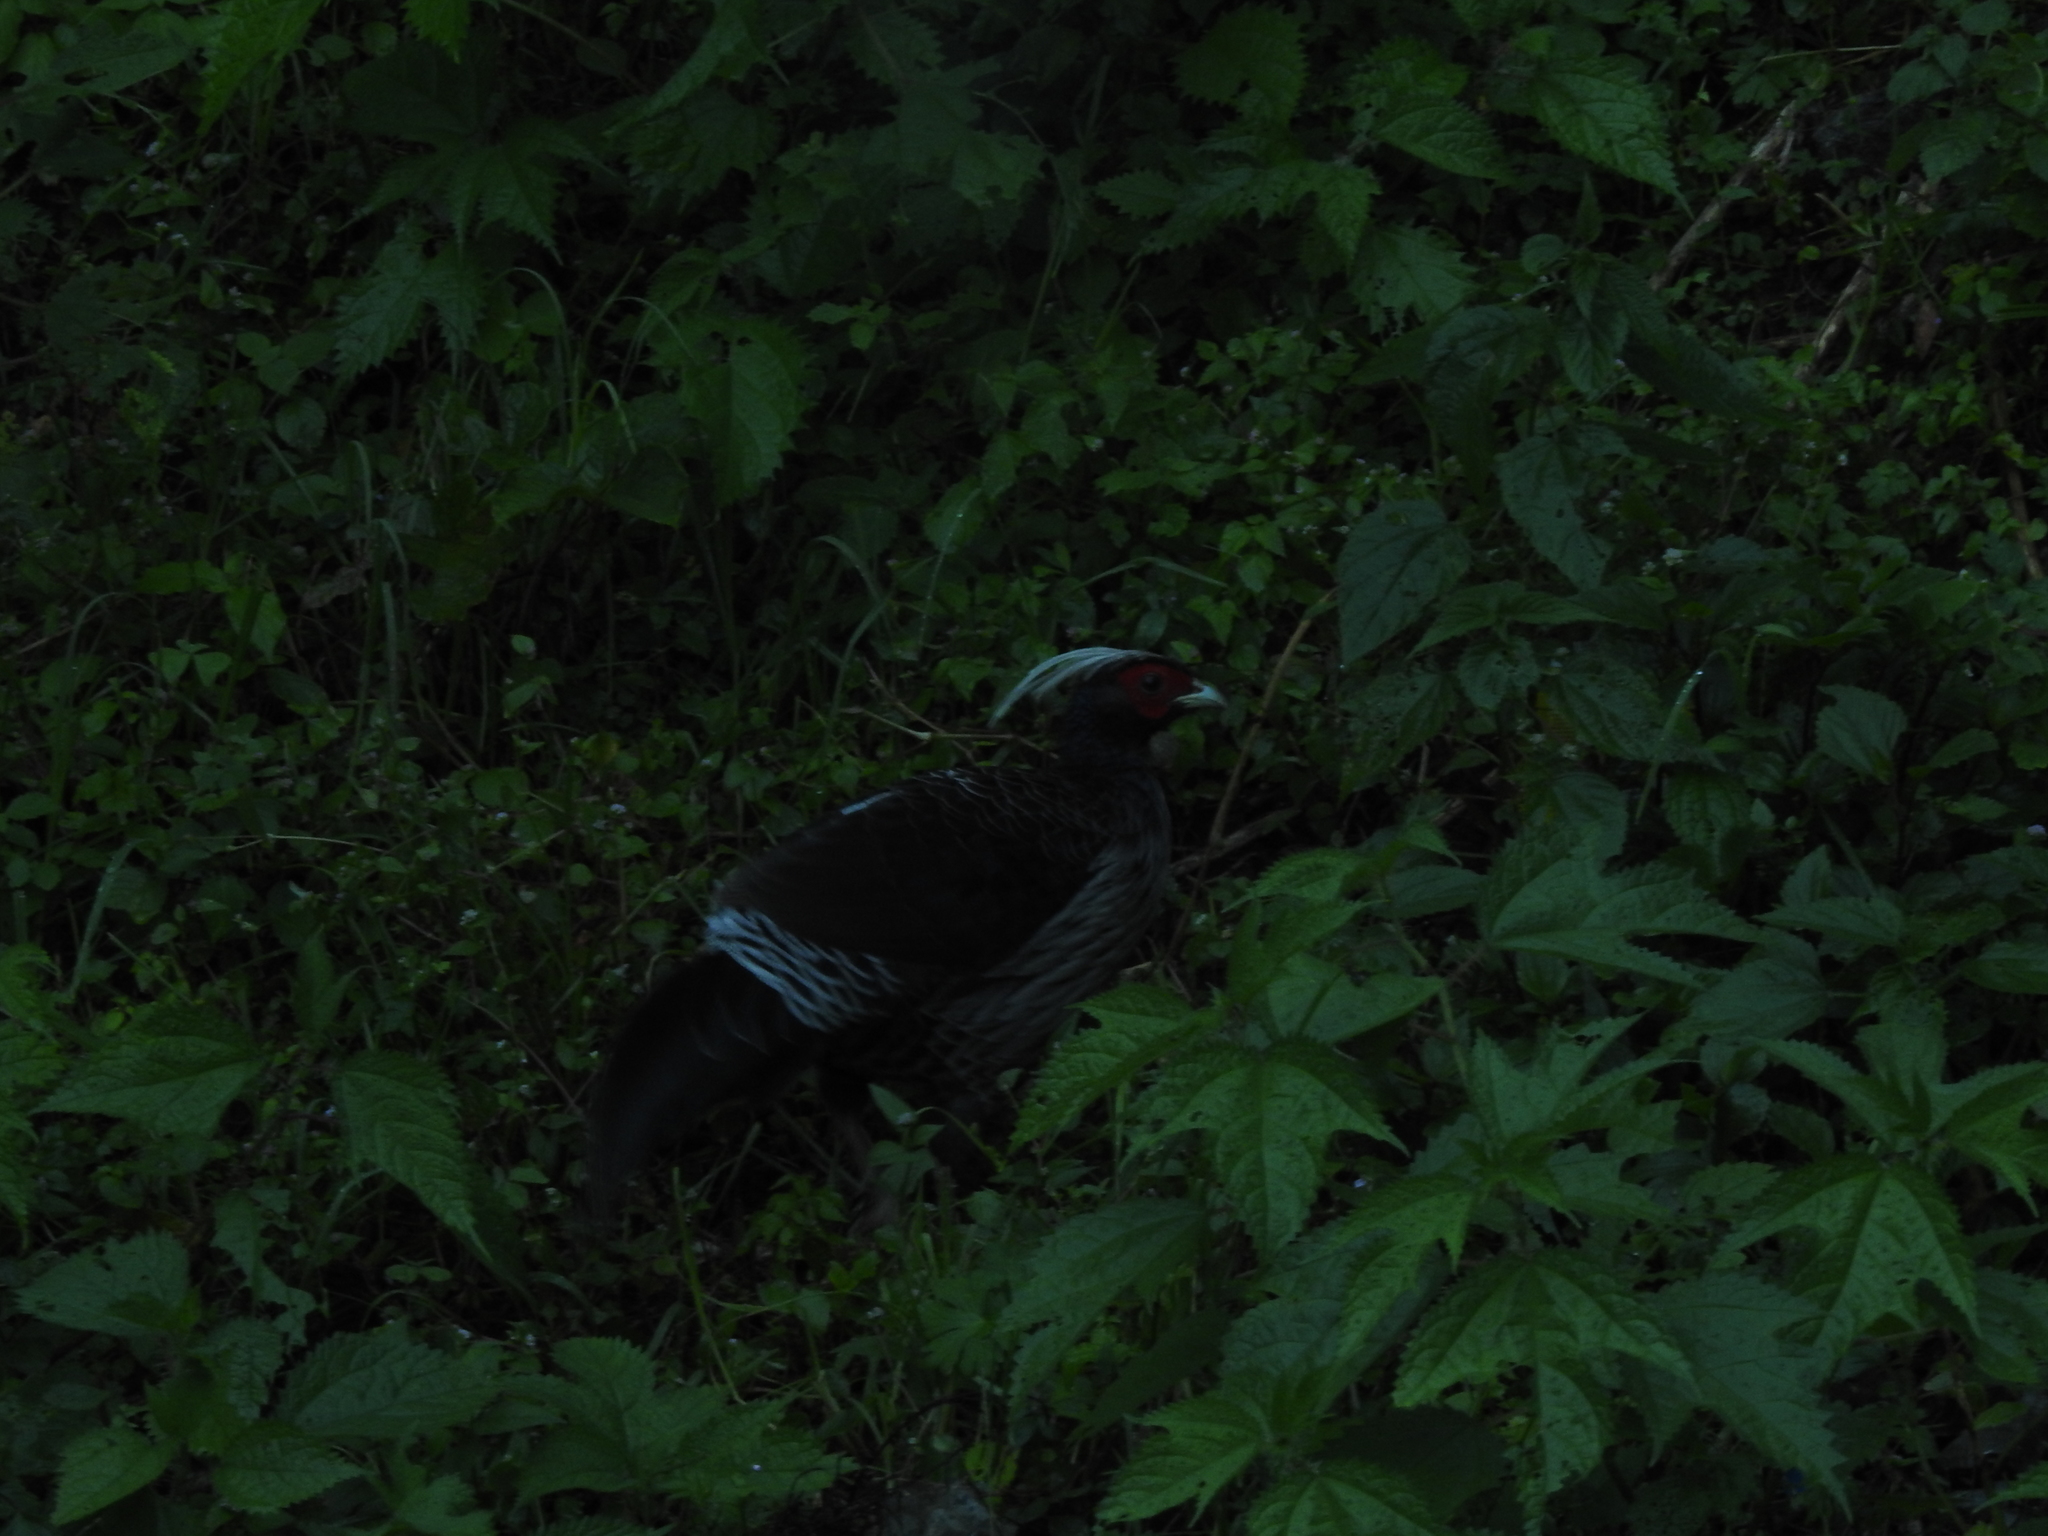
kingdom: Animalia
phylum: Chordata
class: Aves
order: Galliformes
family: Phasianidae
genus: Lophura
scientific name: Lophura leucomelanos
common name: Kalij pheasant
